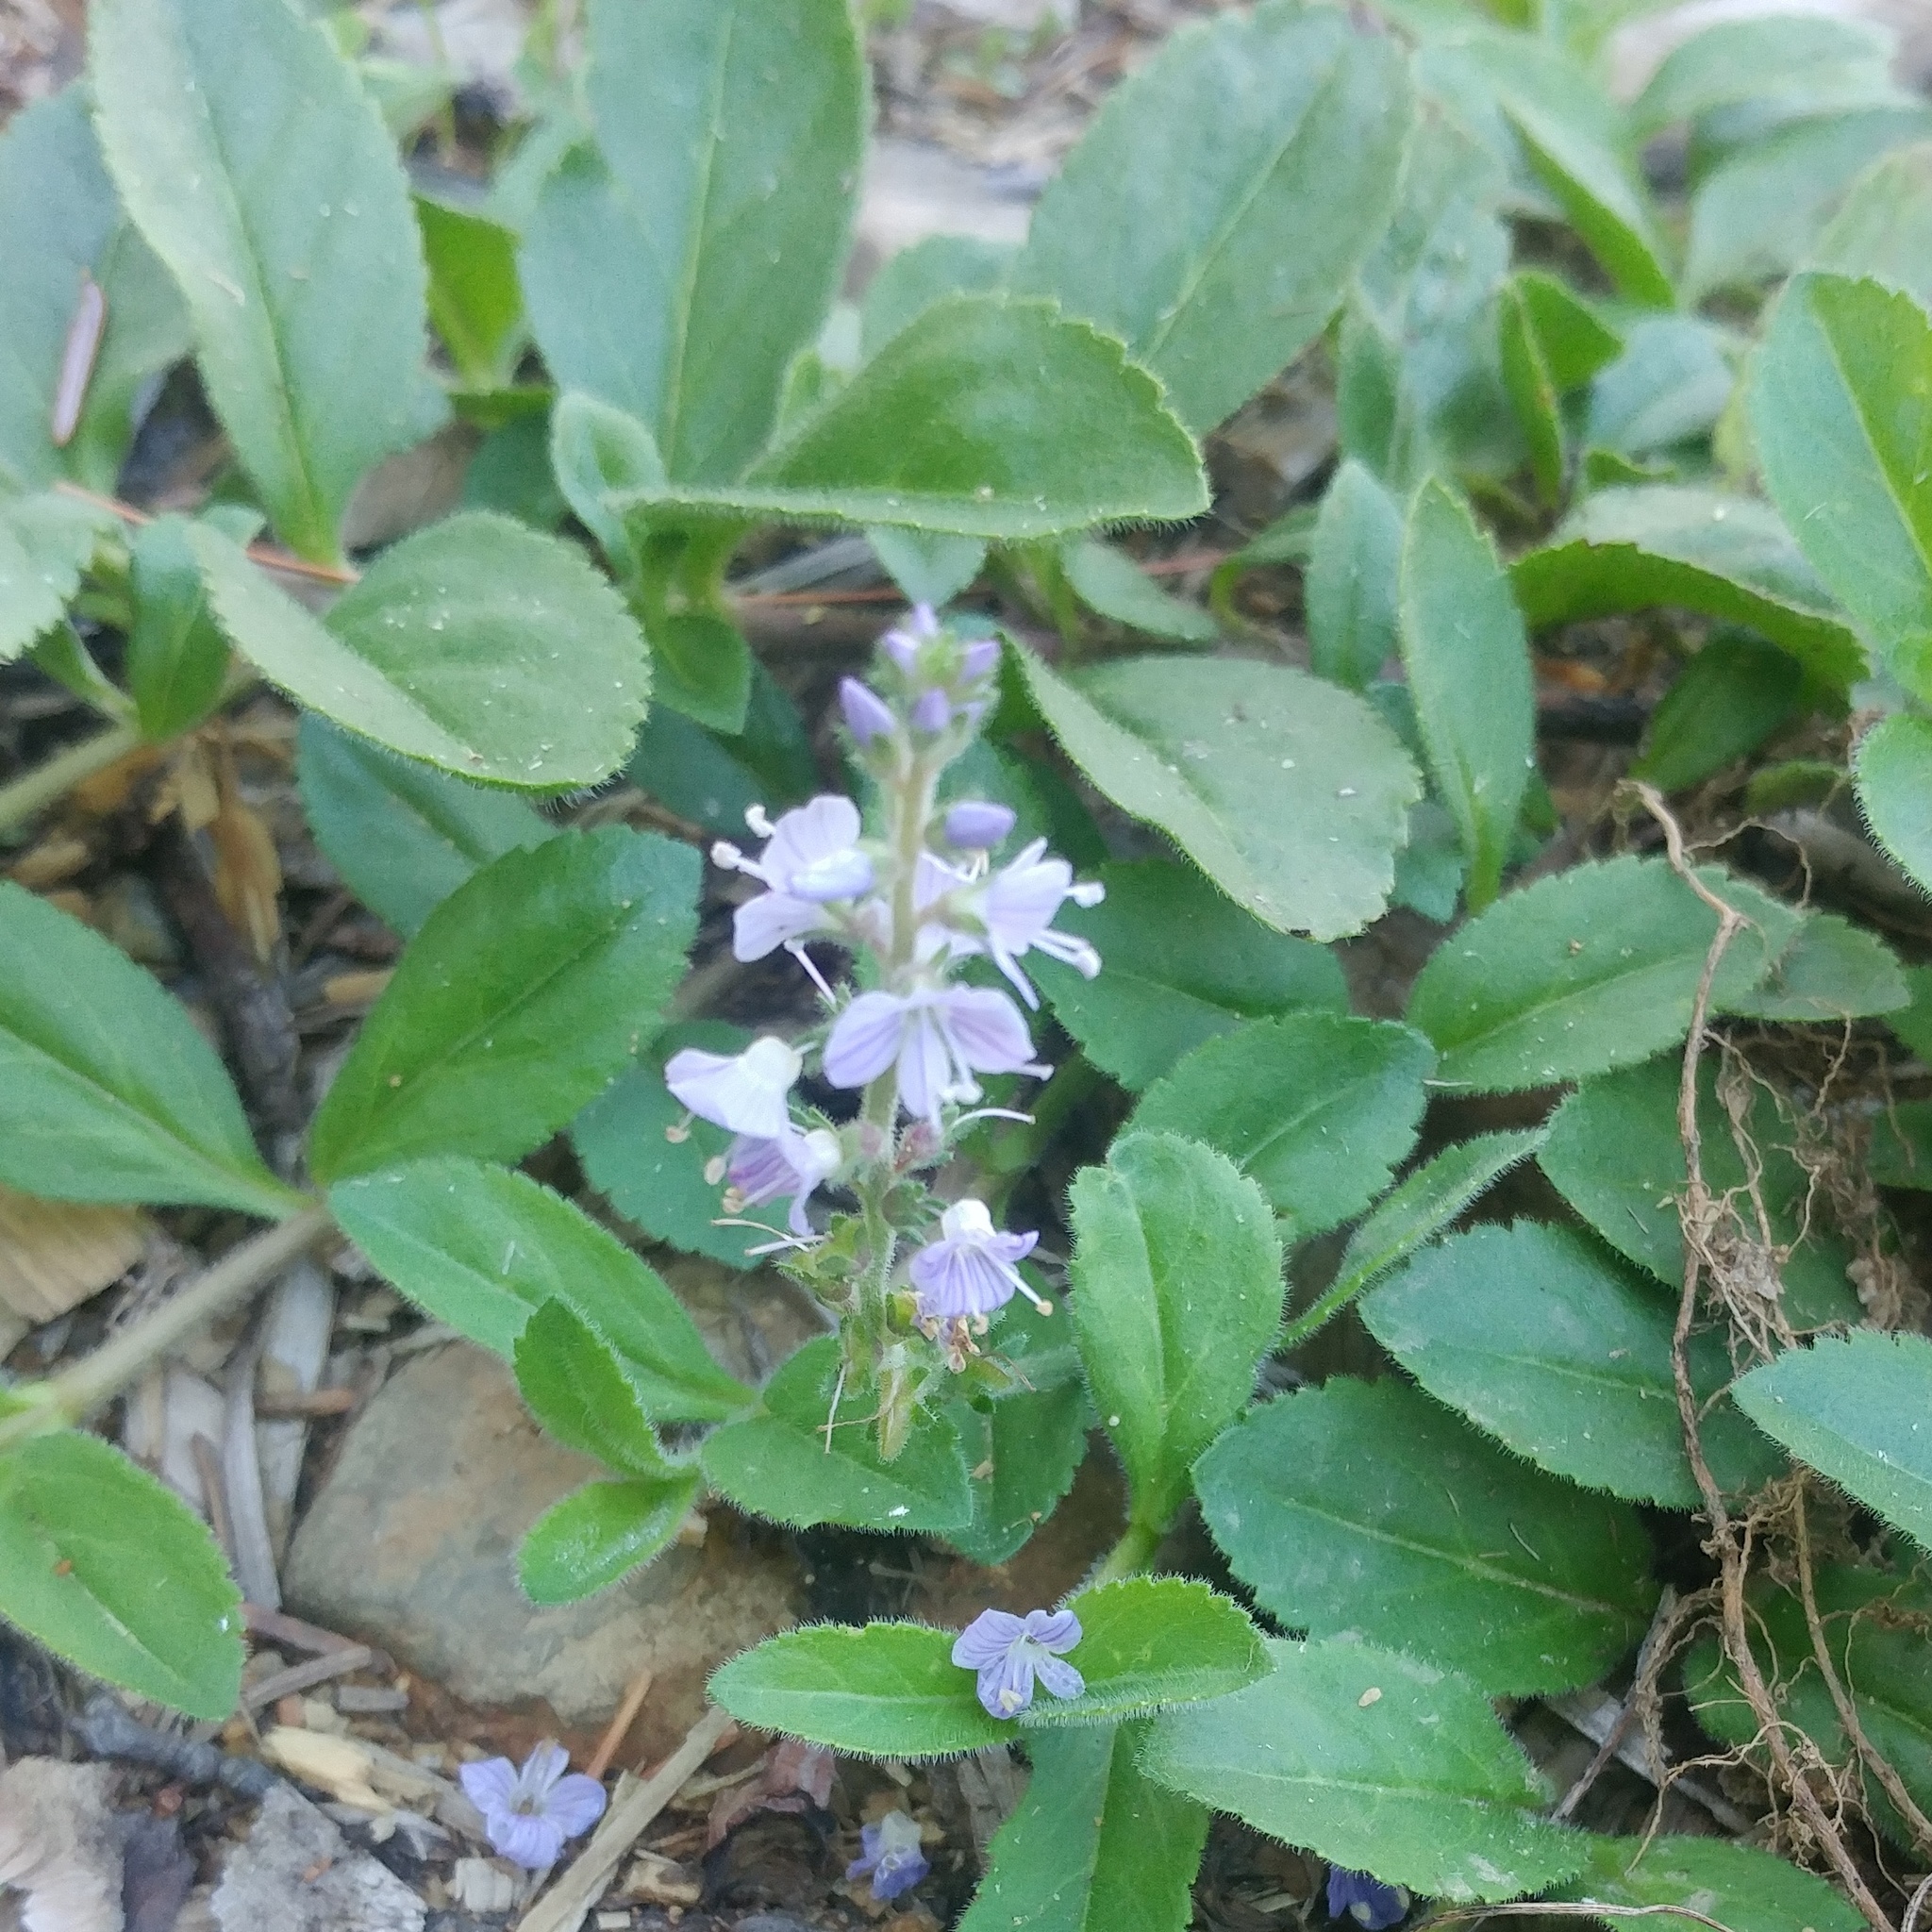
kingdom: Plantae
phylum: Tracheophyta
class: Magnoliopsida
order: Lamiales
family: Plantaginaceae
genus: Veronica
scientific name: Veronica officinalis
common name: Common speedwell
